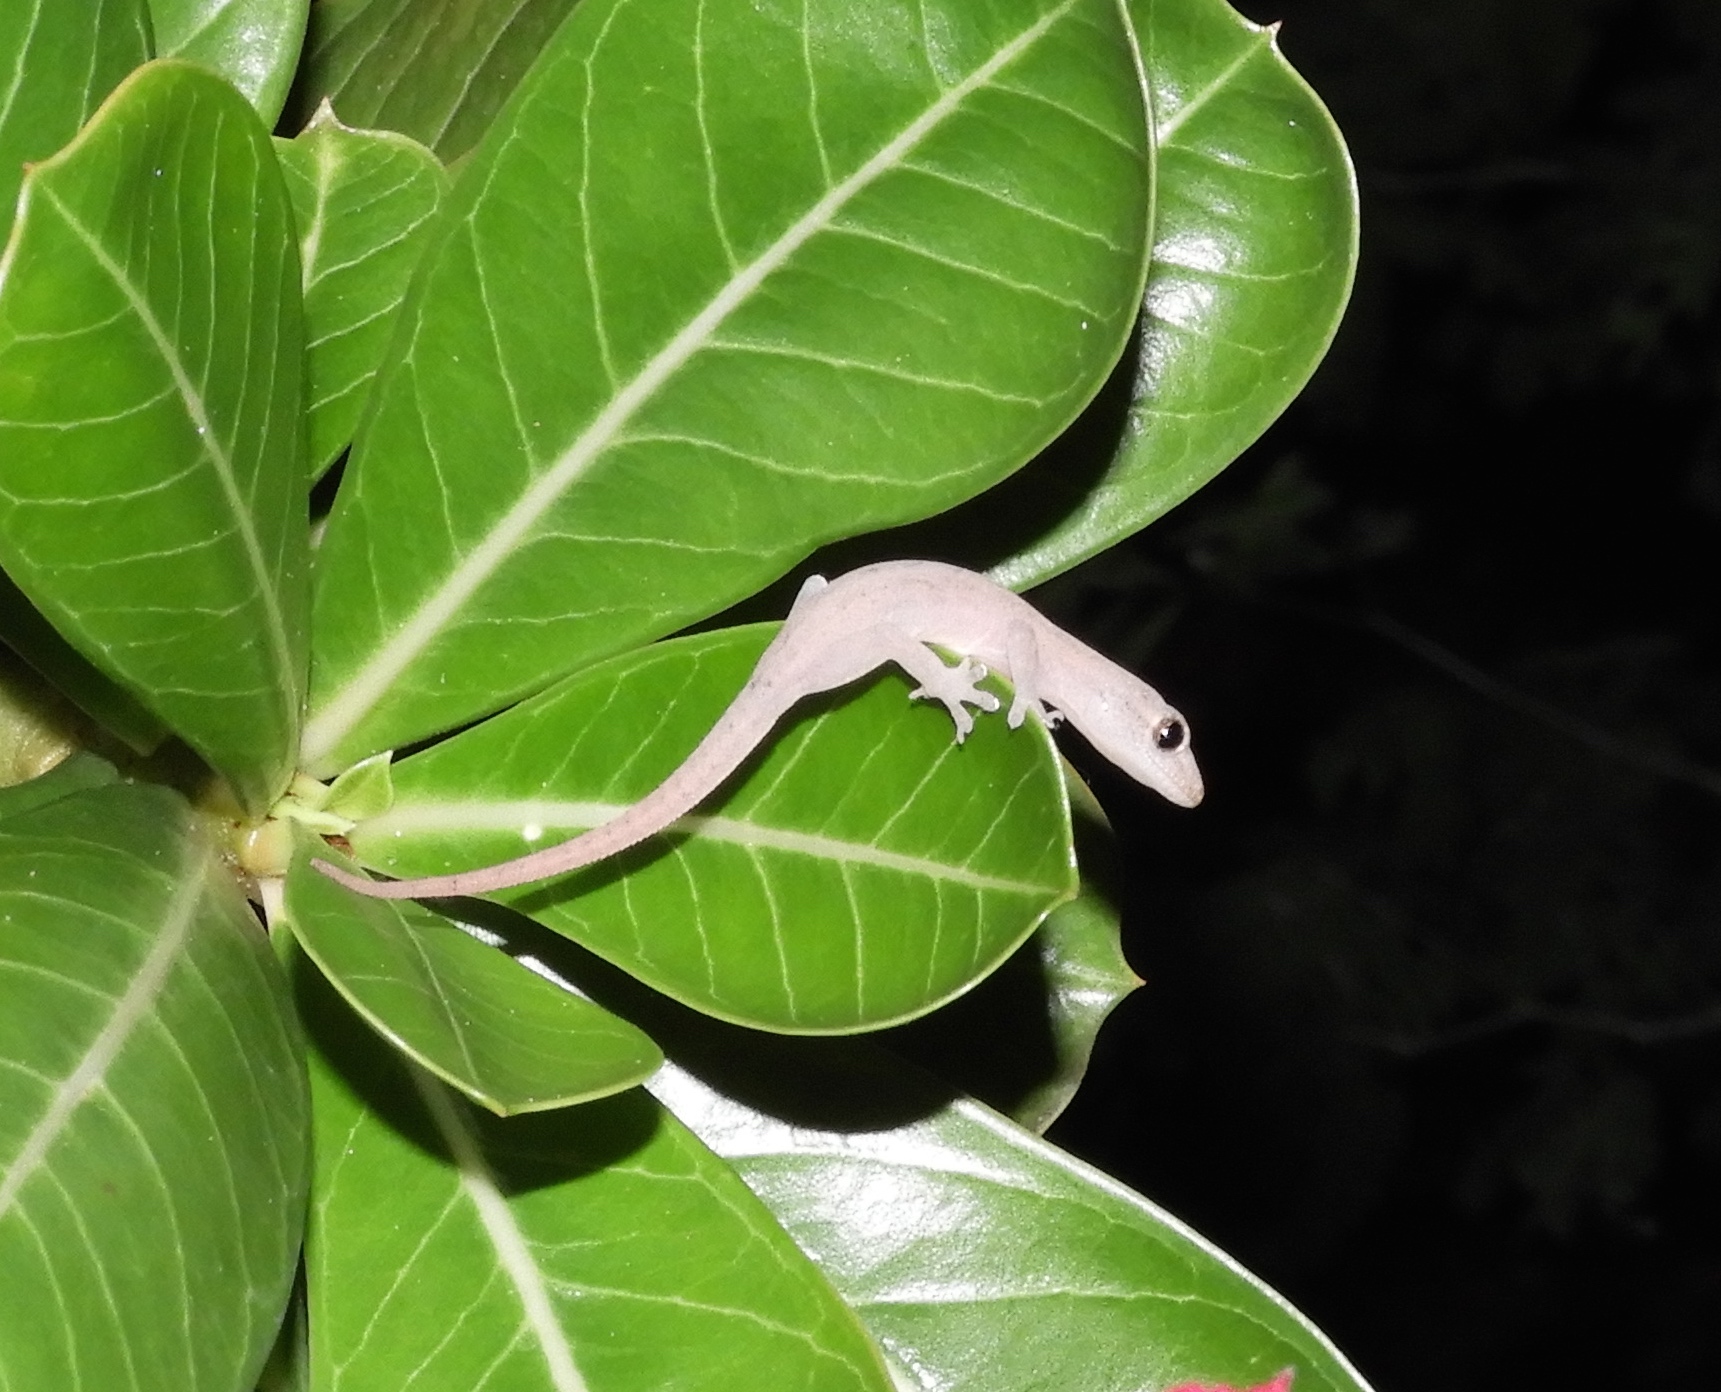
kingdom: Animalia
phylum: Chordata
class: Squamata
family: Gekkonidae
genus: Hemidactylus
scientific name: Hemidactylus frenatus
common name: Common house gecko
